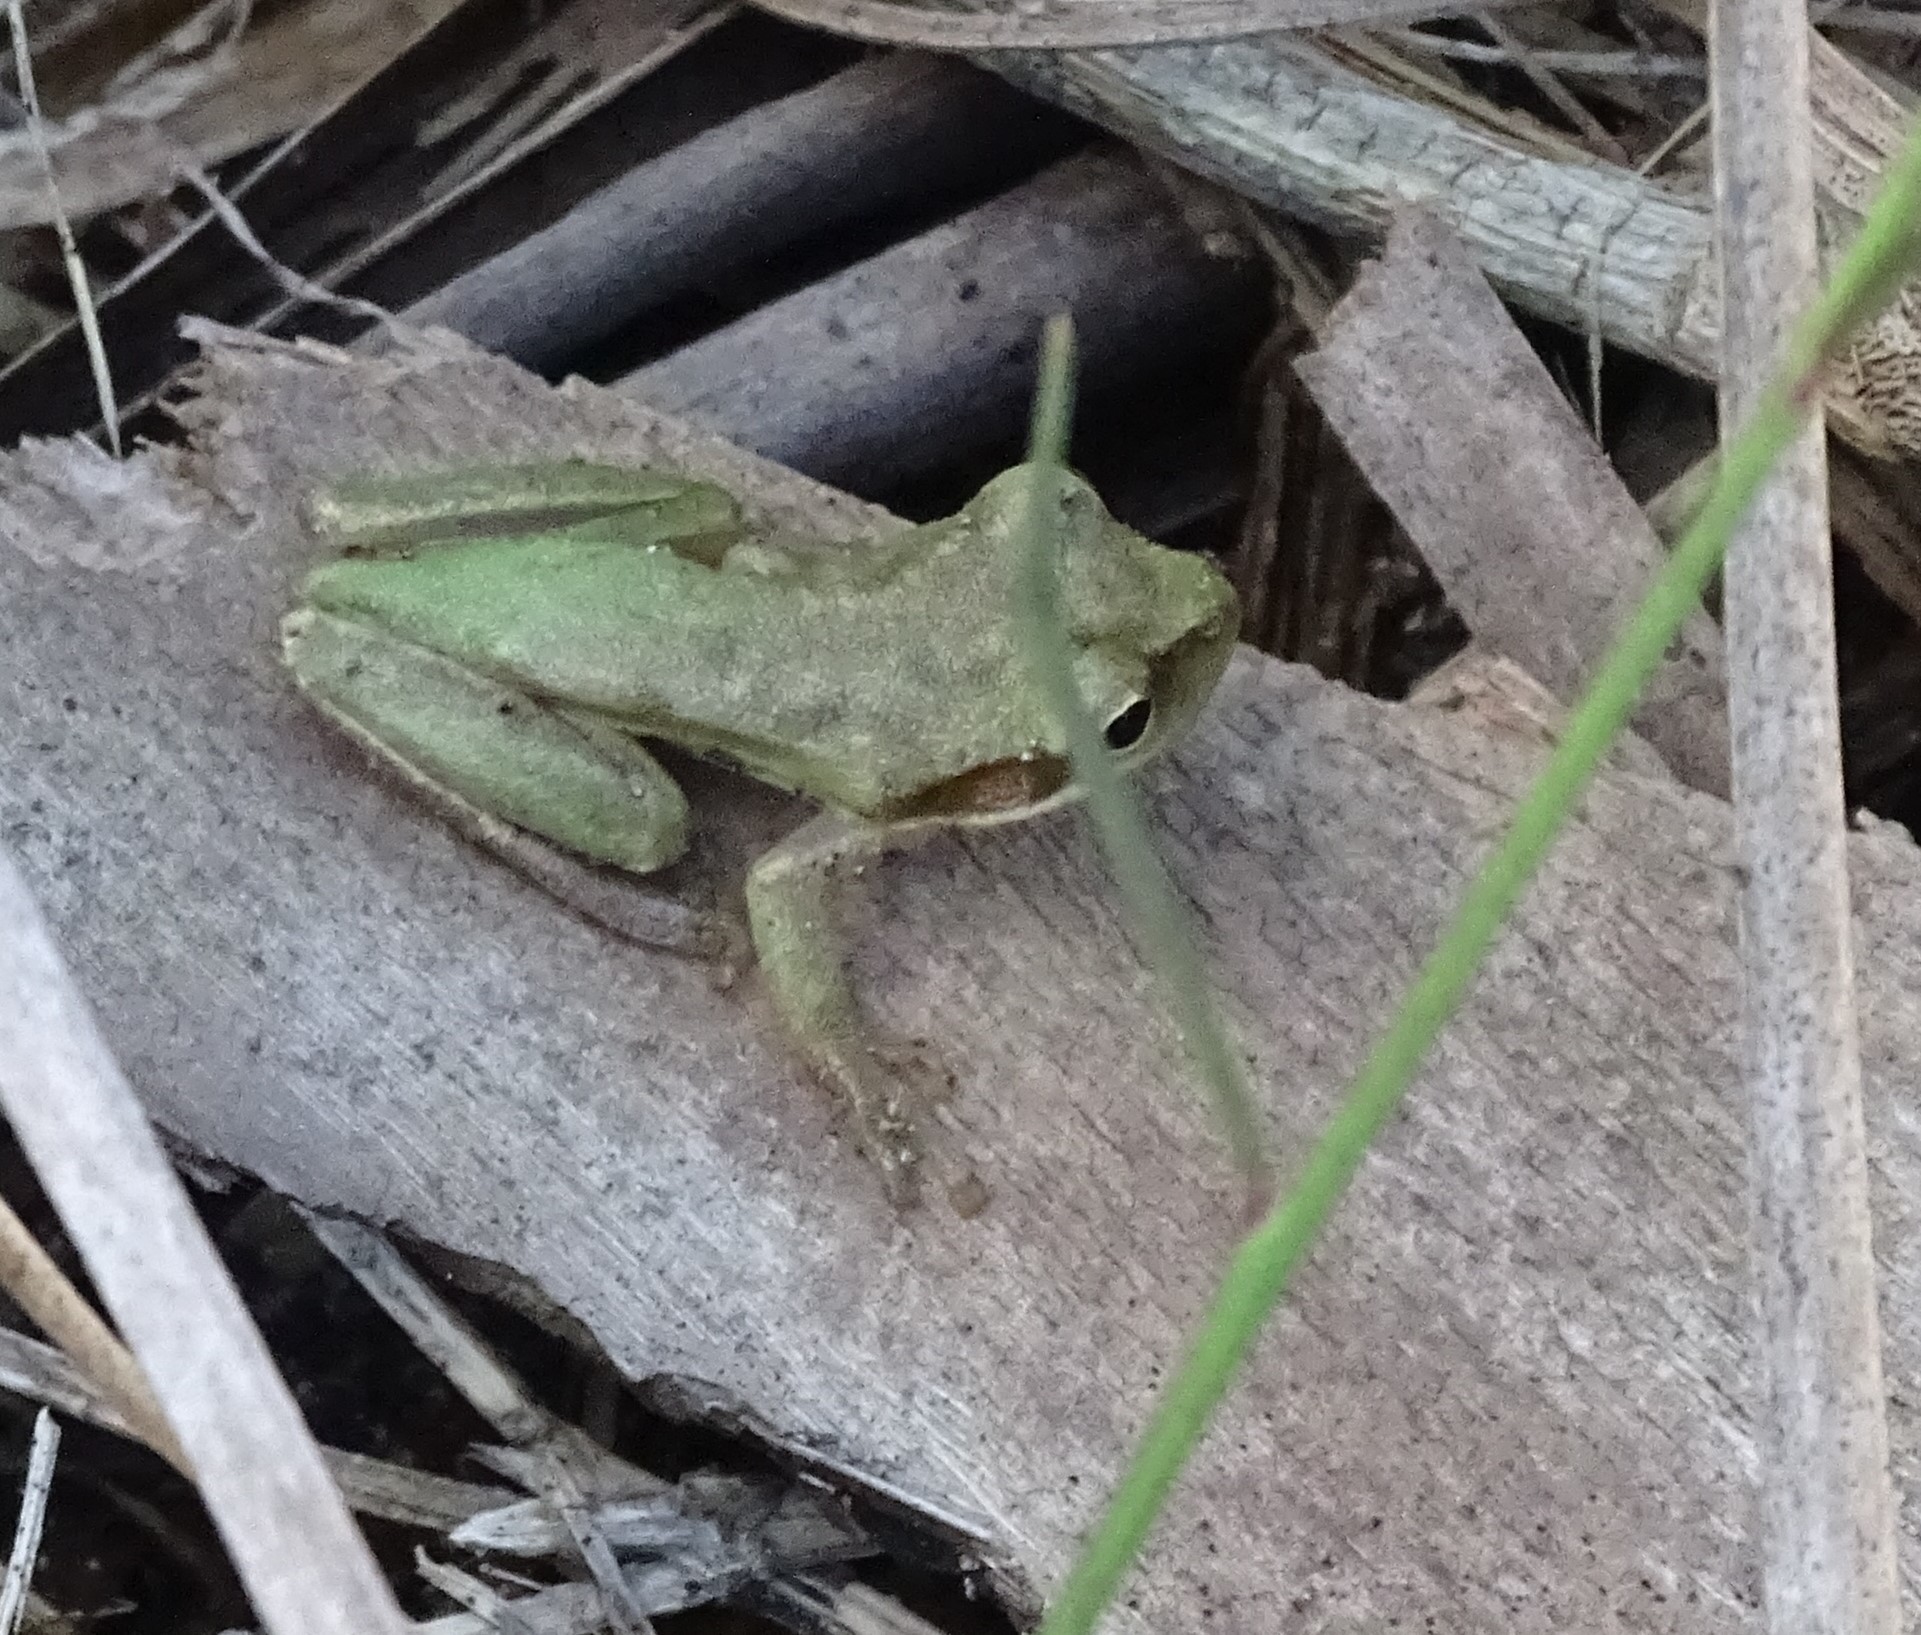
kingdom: Animalia
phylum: Chordata
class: Amphibia
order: Anura
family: Hylidae
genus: Dryophytes
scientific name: Dryophytes squirellus
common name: Squirrel treefrog
